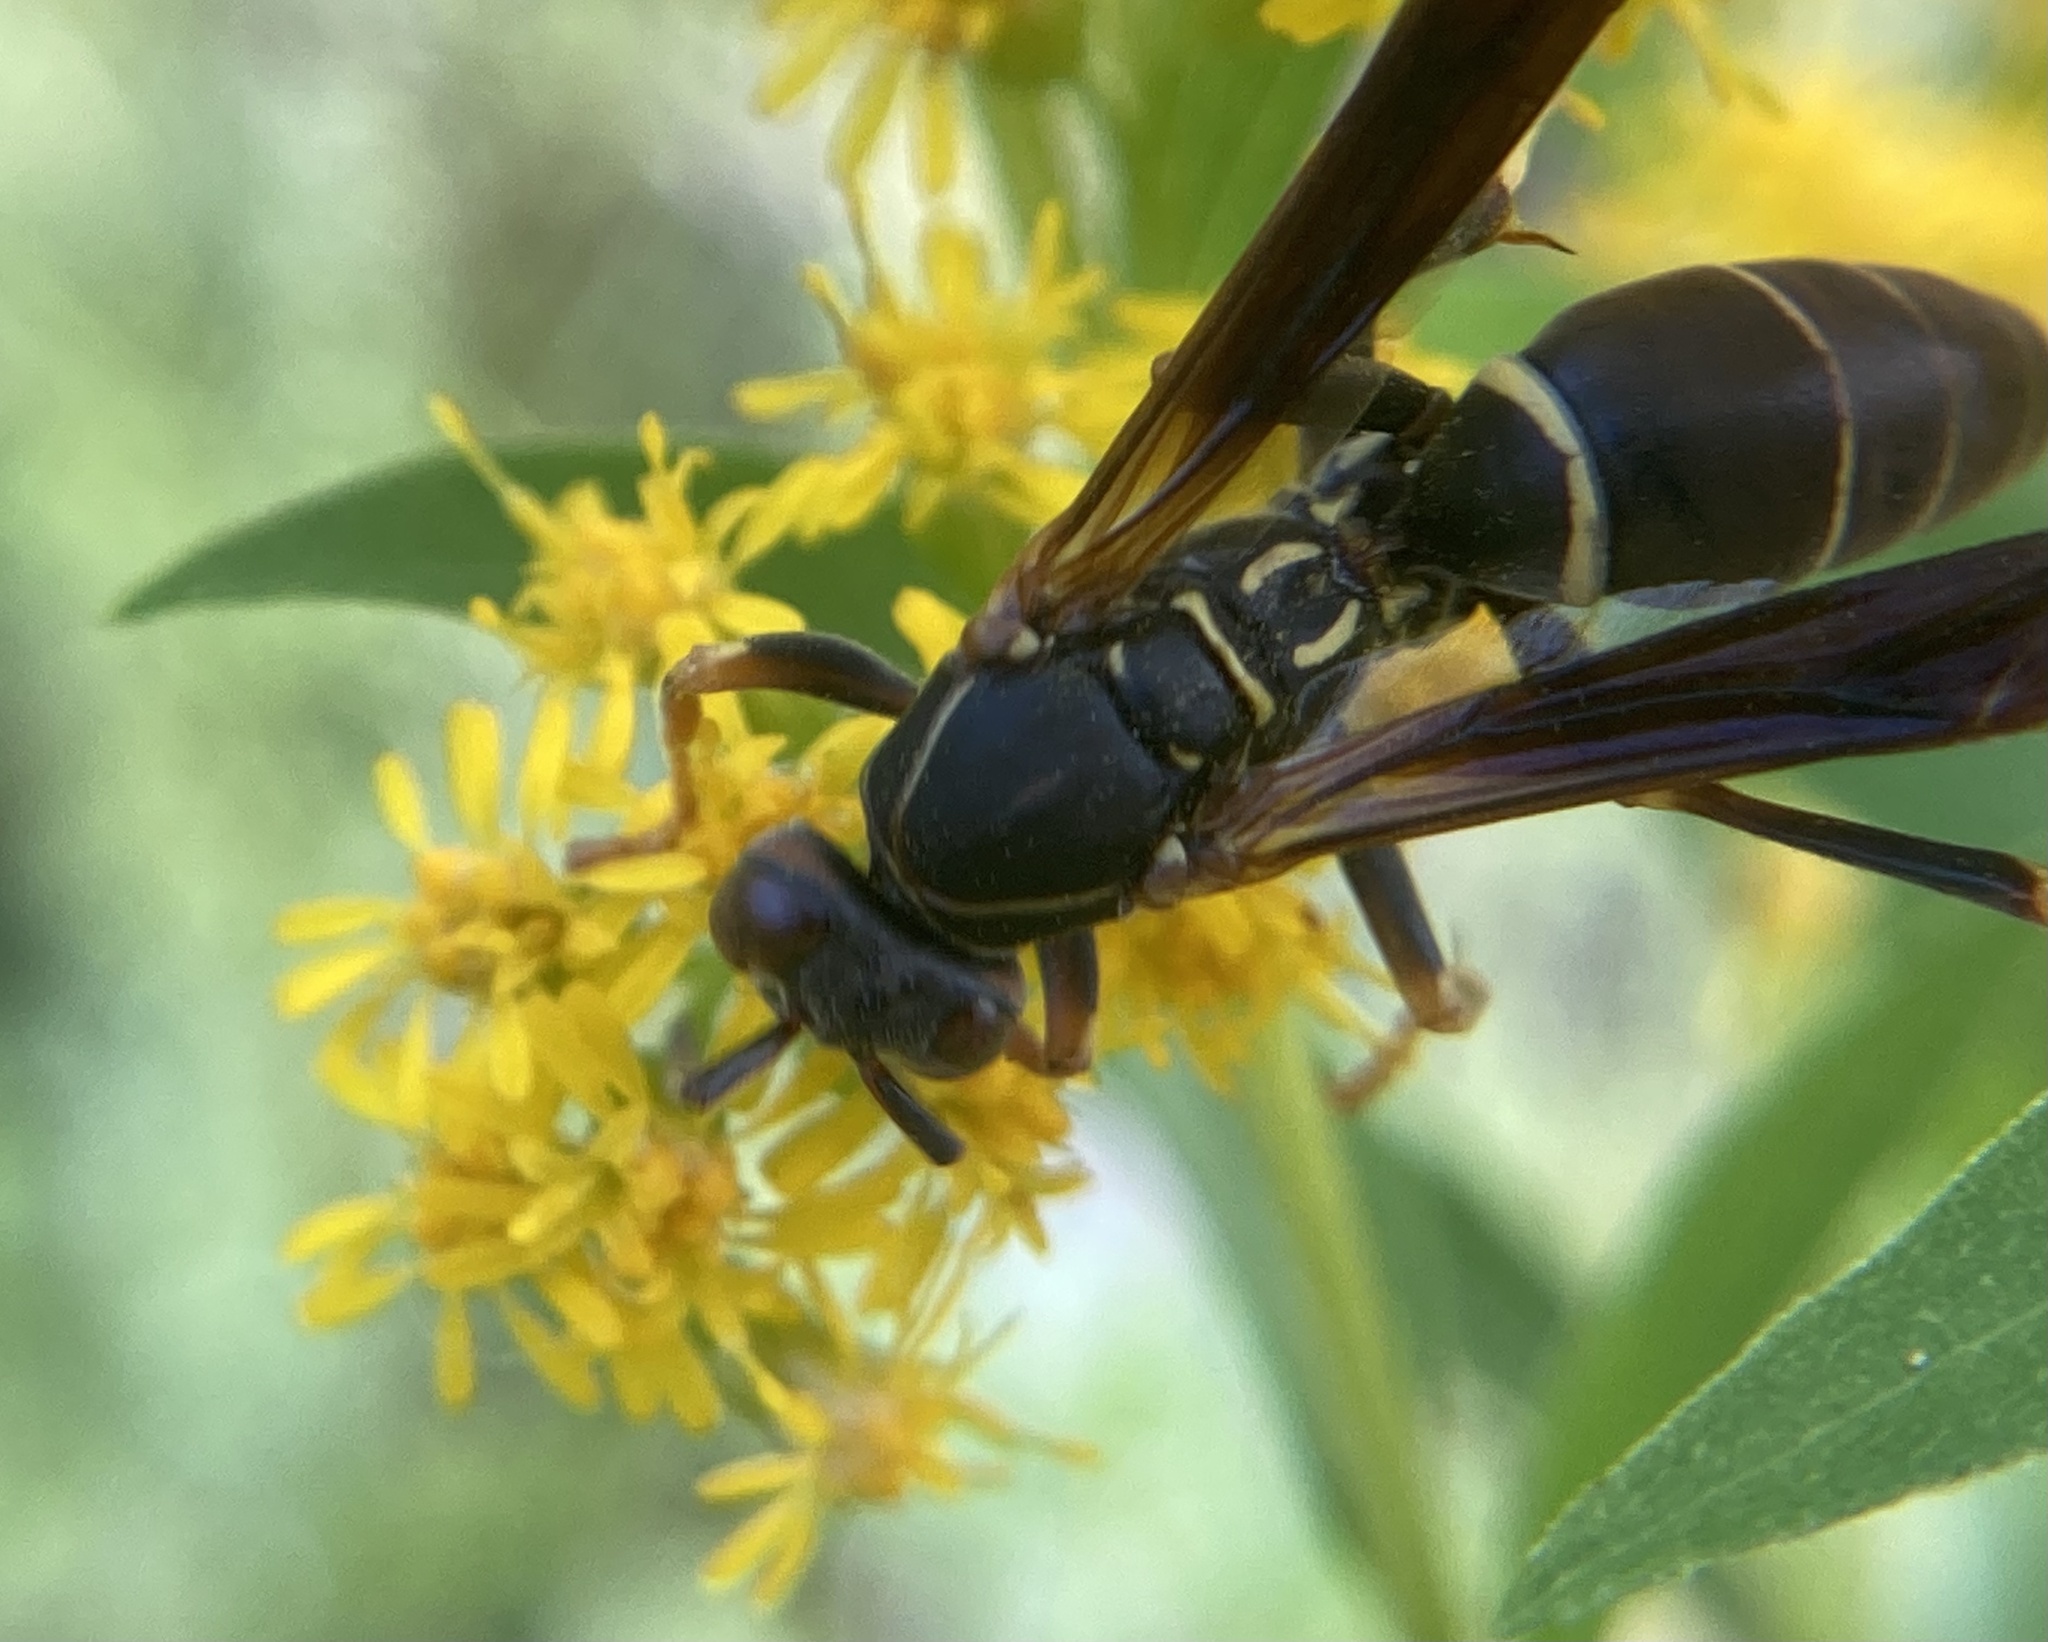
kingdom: Animalia
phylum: Arthropoda
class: Insecta
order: Hymenoptera
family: Eumenidae
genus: Polistes
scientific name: Polistes fuscatus
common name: Dark paper wasp
